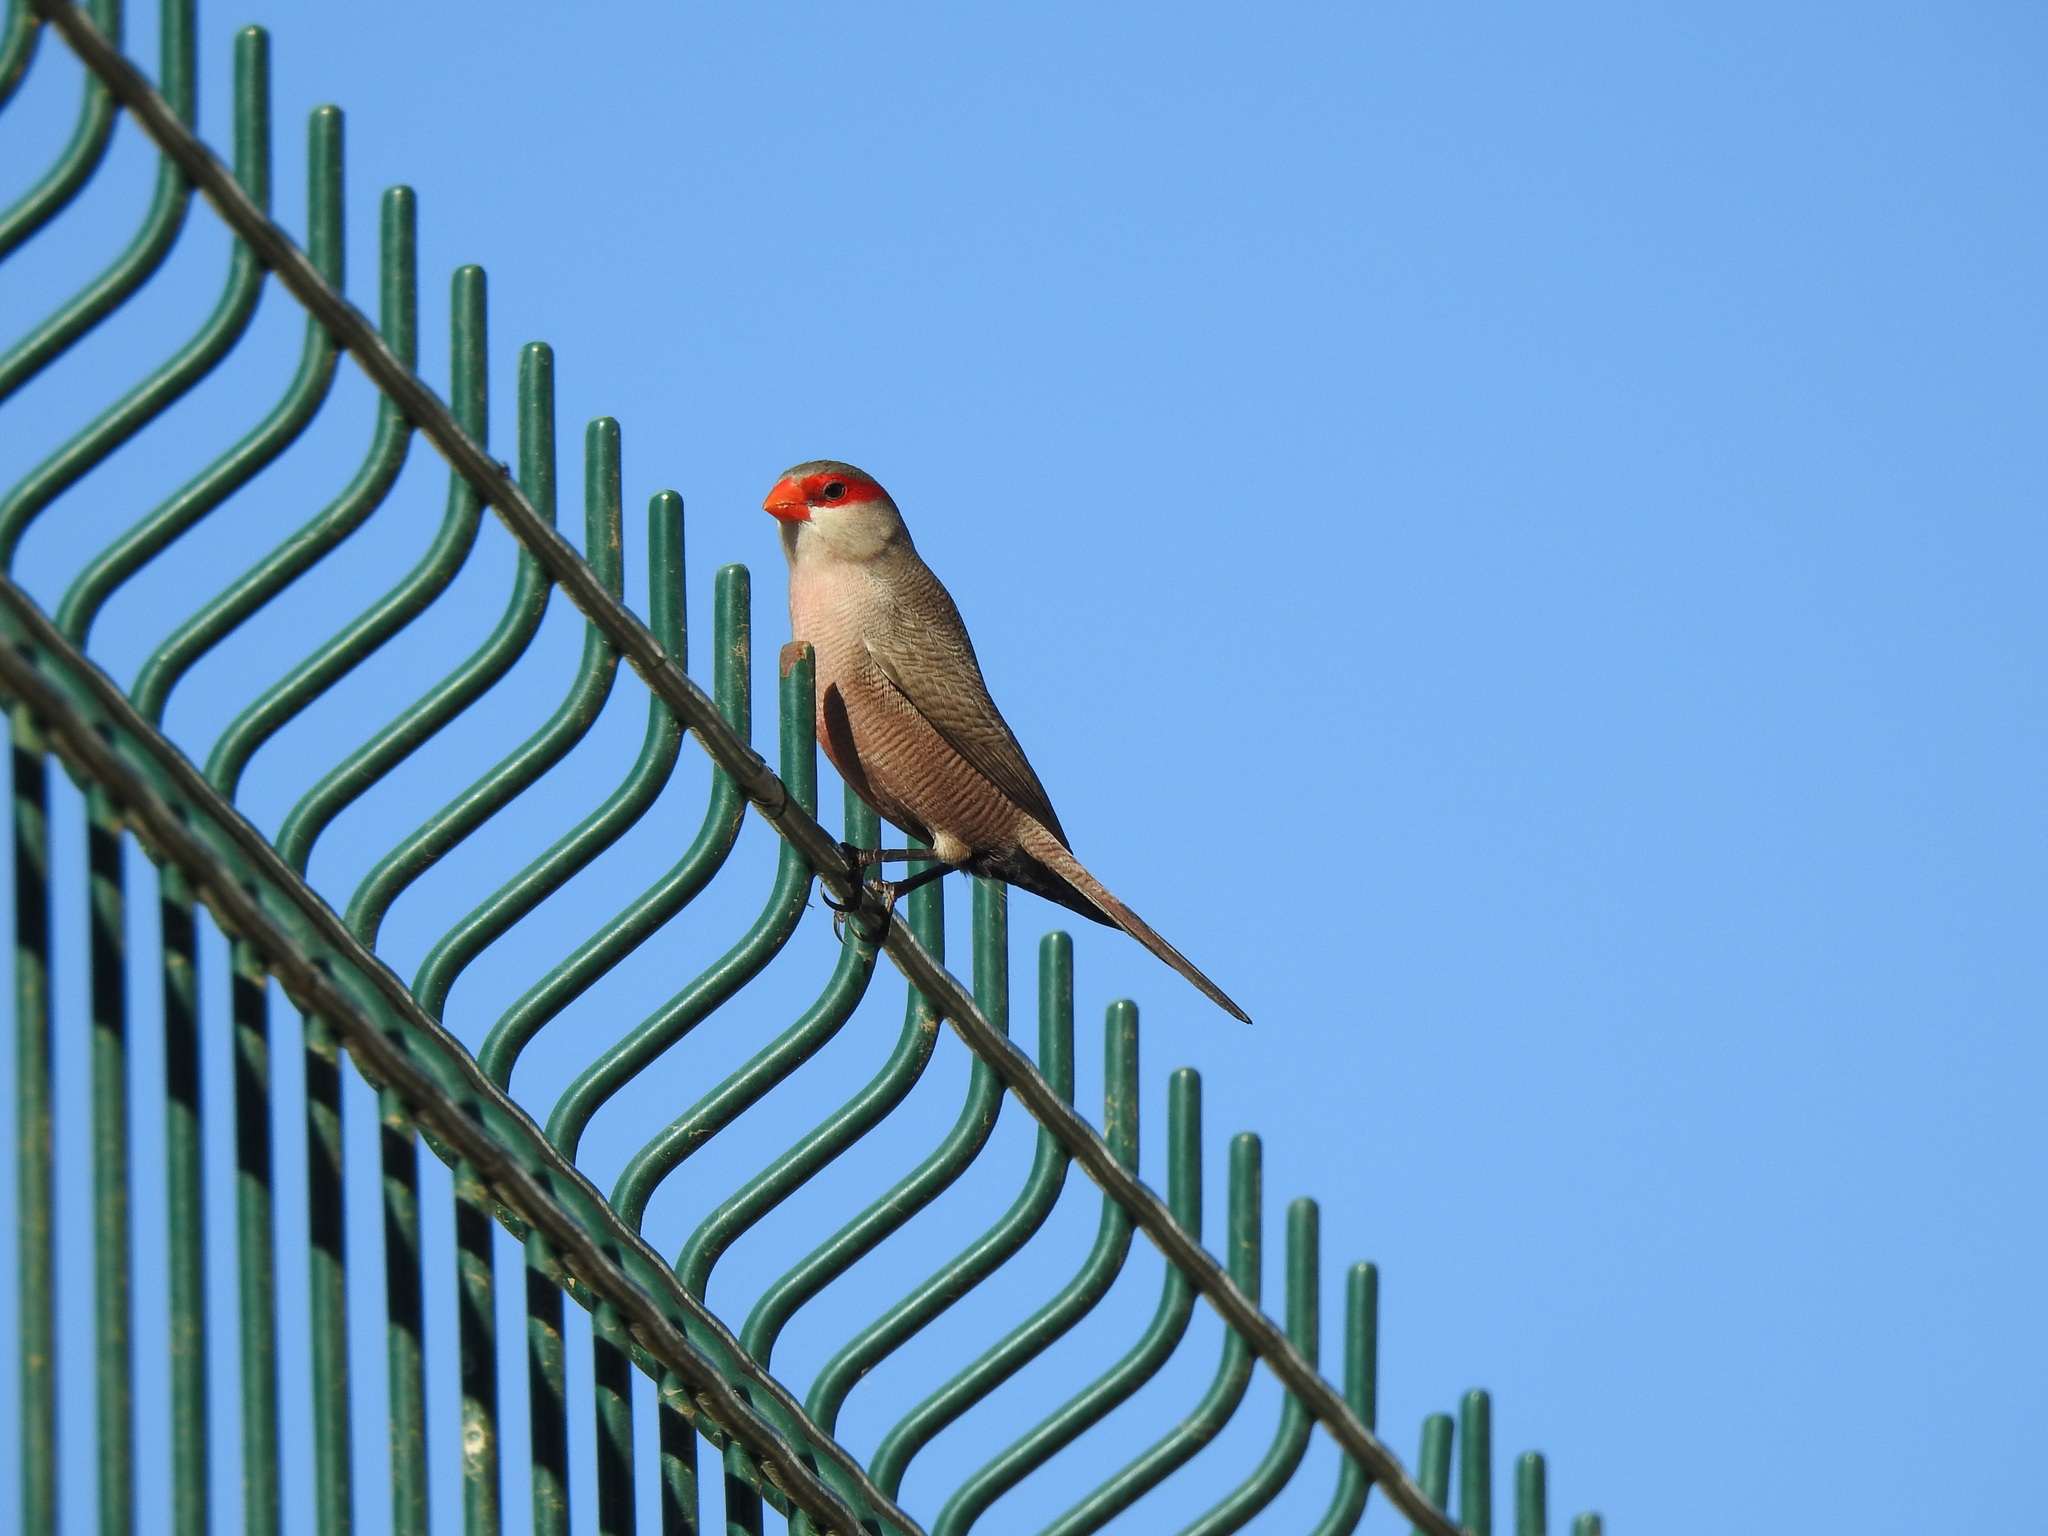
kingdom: Animalia
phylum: Chordata
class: Aves
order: Passeriformes
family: Estrildidae
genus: Estrilda
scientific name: Estrilda astrild
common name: Common waxbill
